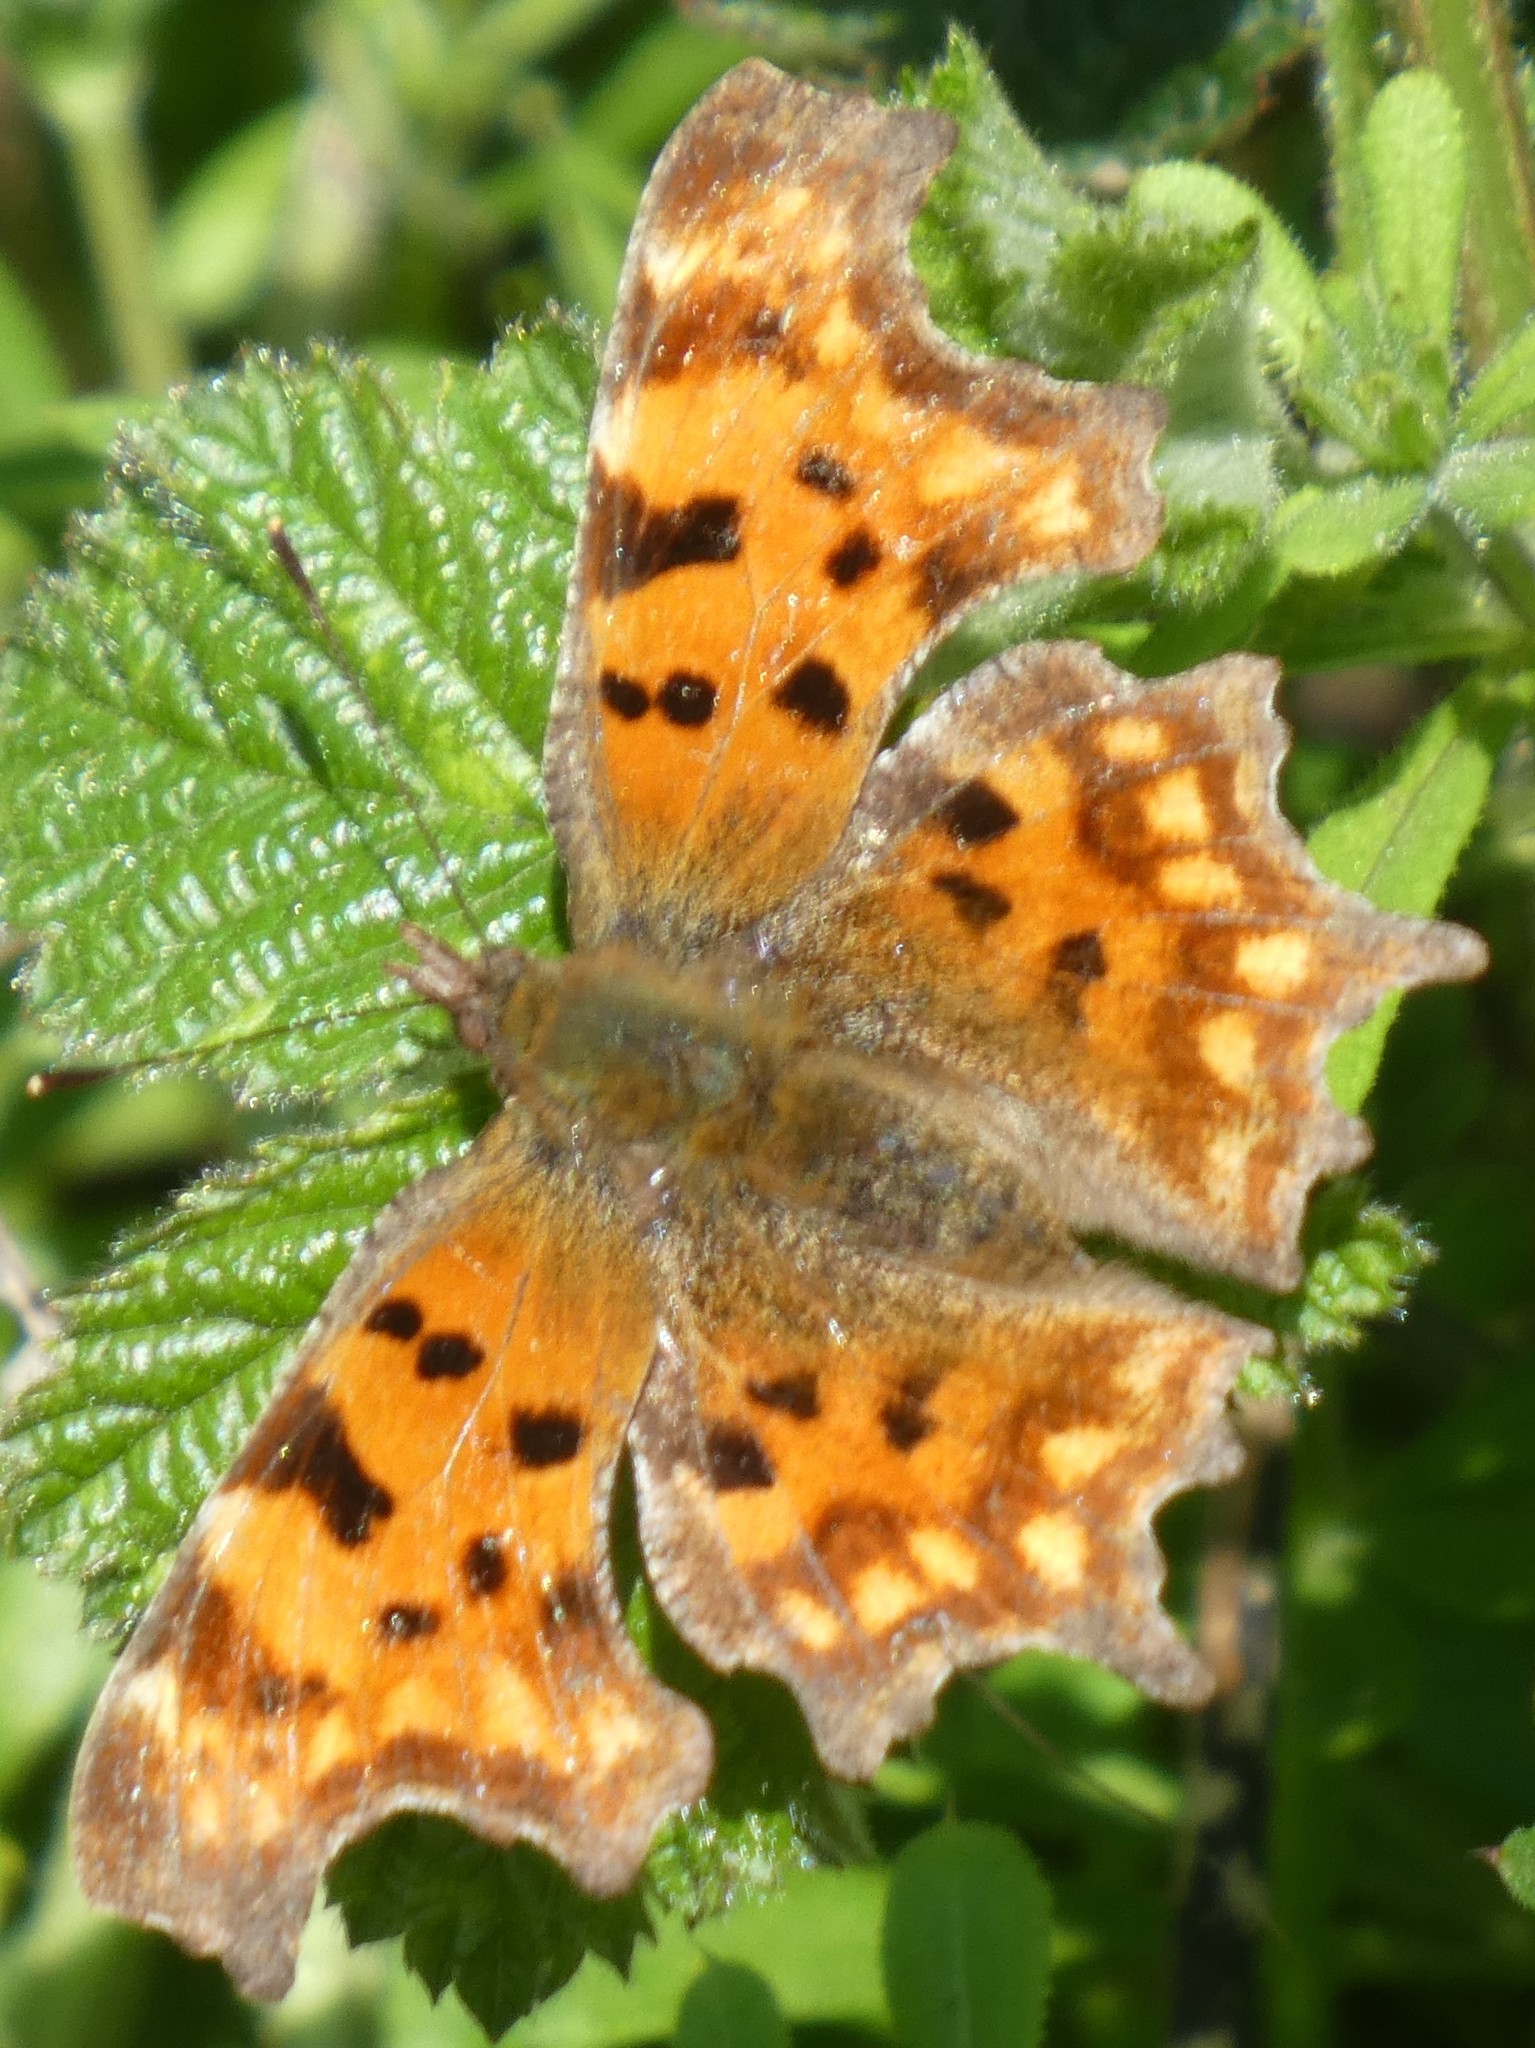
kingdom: Animalia
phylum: Arthropoda
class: Insecta
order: Lepidoptera
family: Nymphalidae
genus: Polygonia
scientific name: Polygonia c-album
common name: Comma
